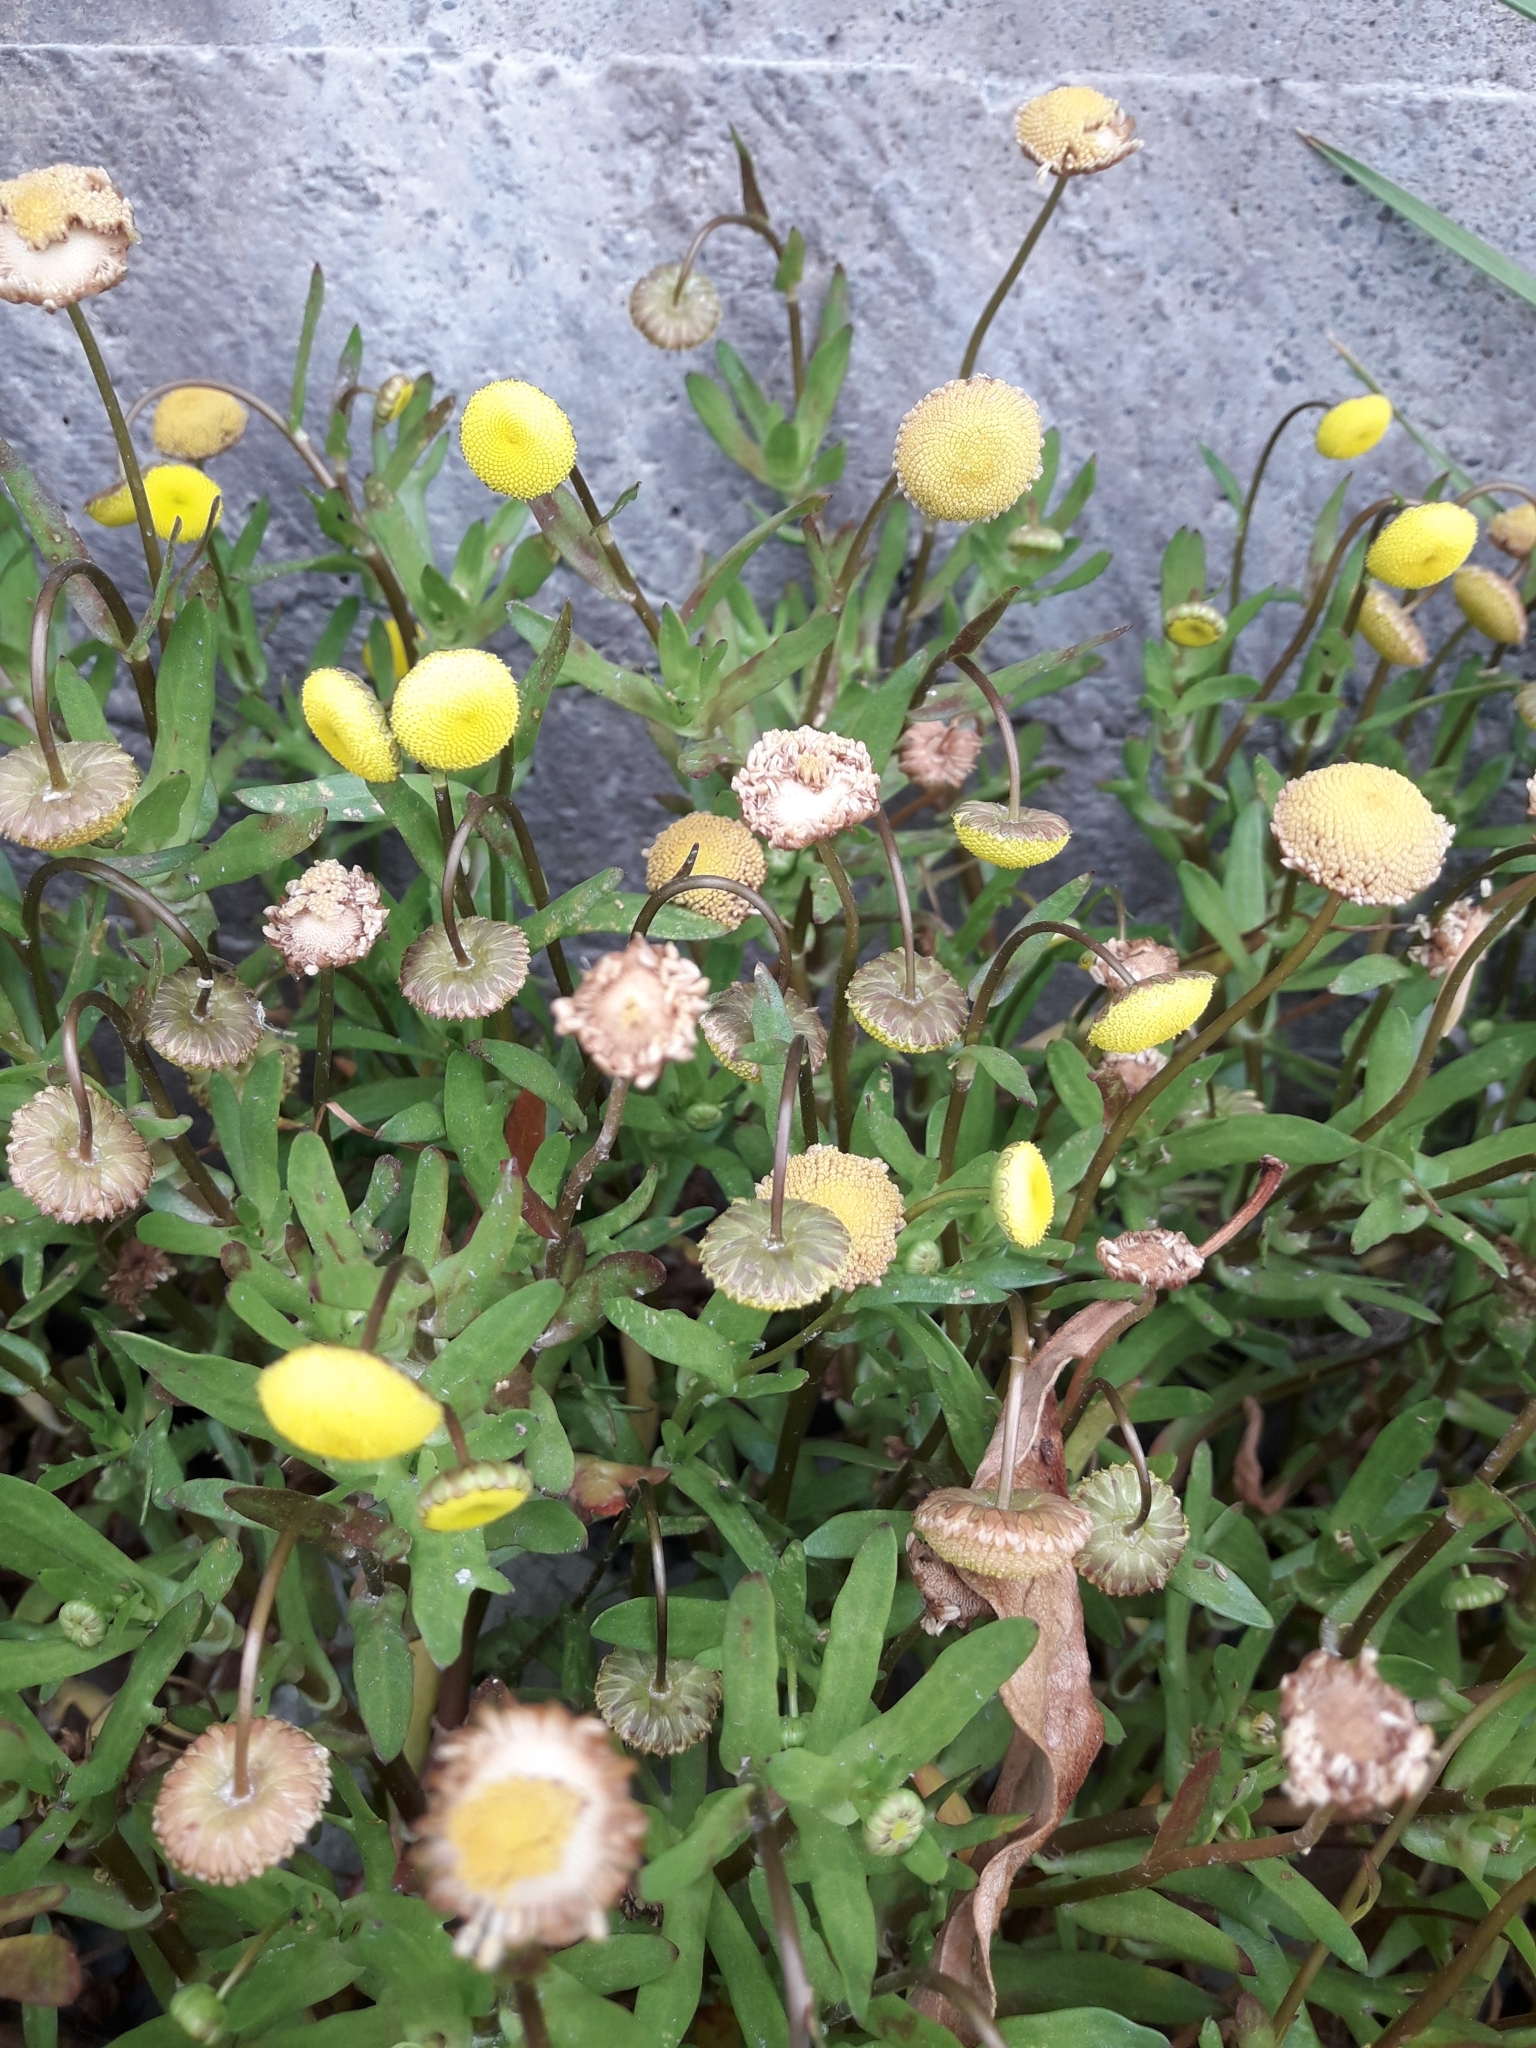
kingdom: Plantae
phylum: Tracheophyta
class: Magnoliopsida
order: Asterales
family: Asteraceae
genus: Cotula
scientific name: Cotula coronopifolia
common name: Buttonweed
